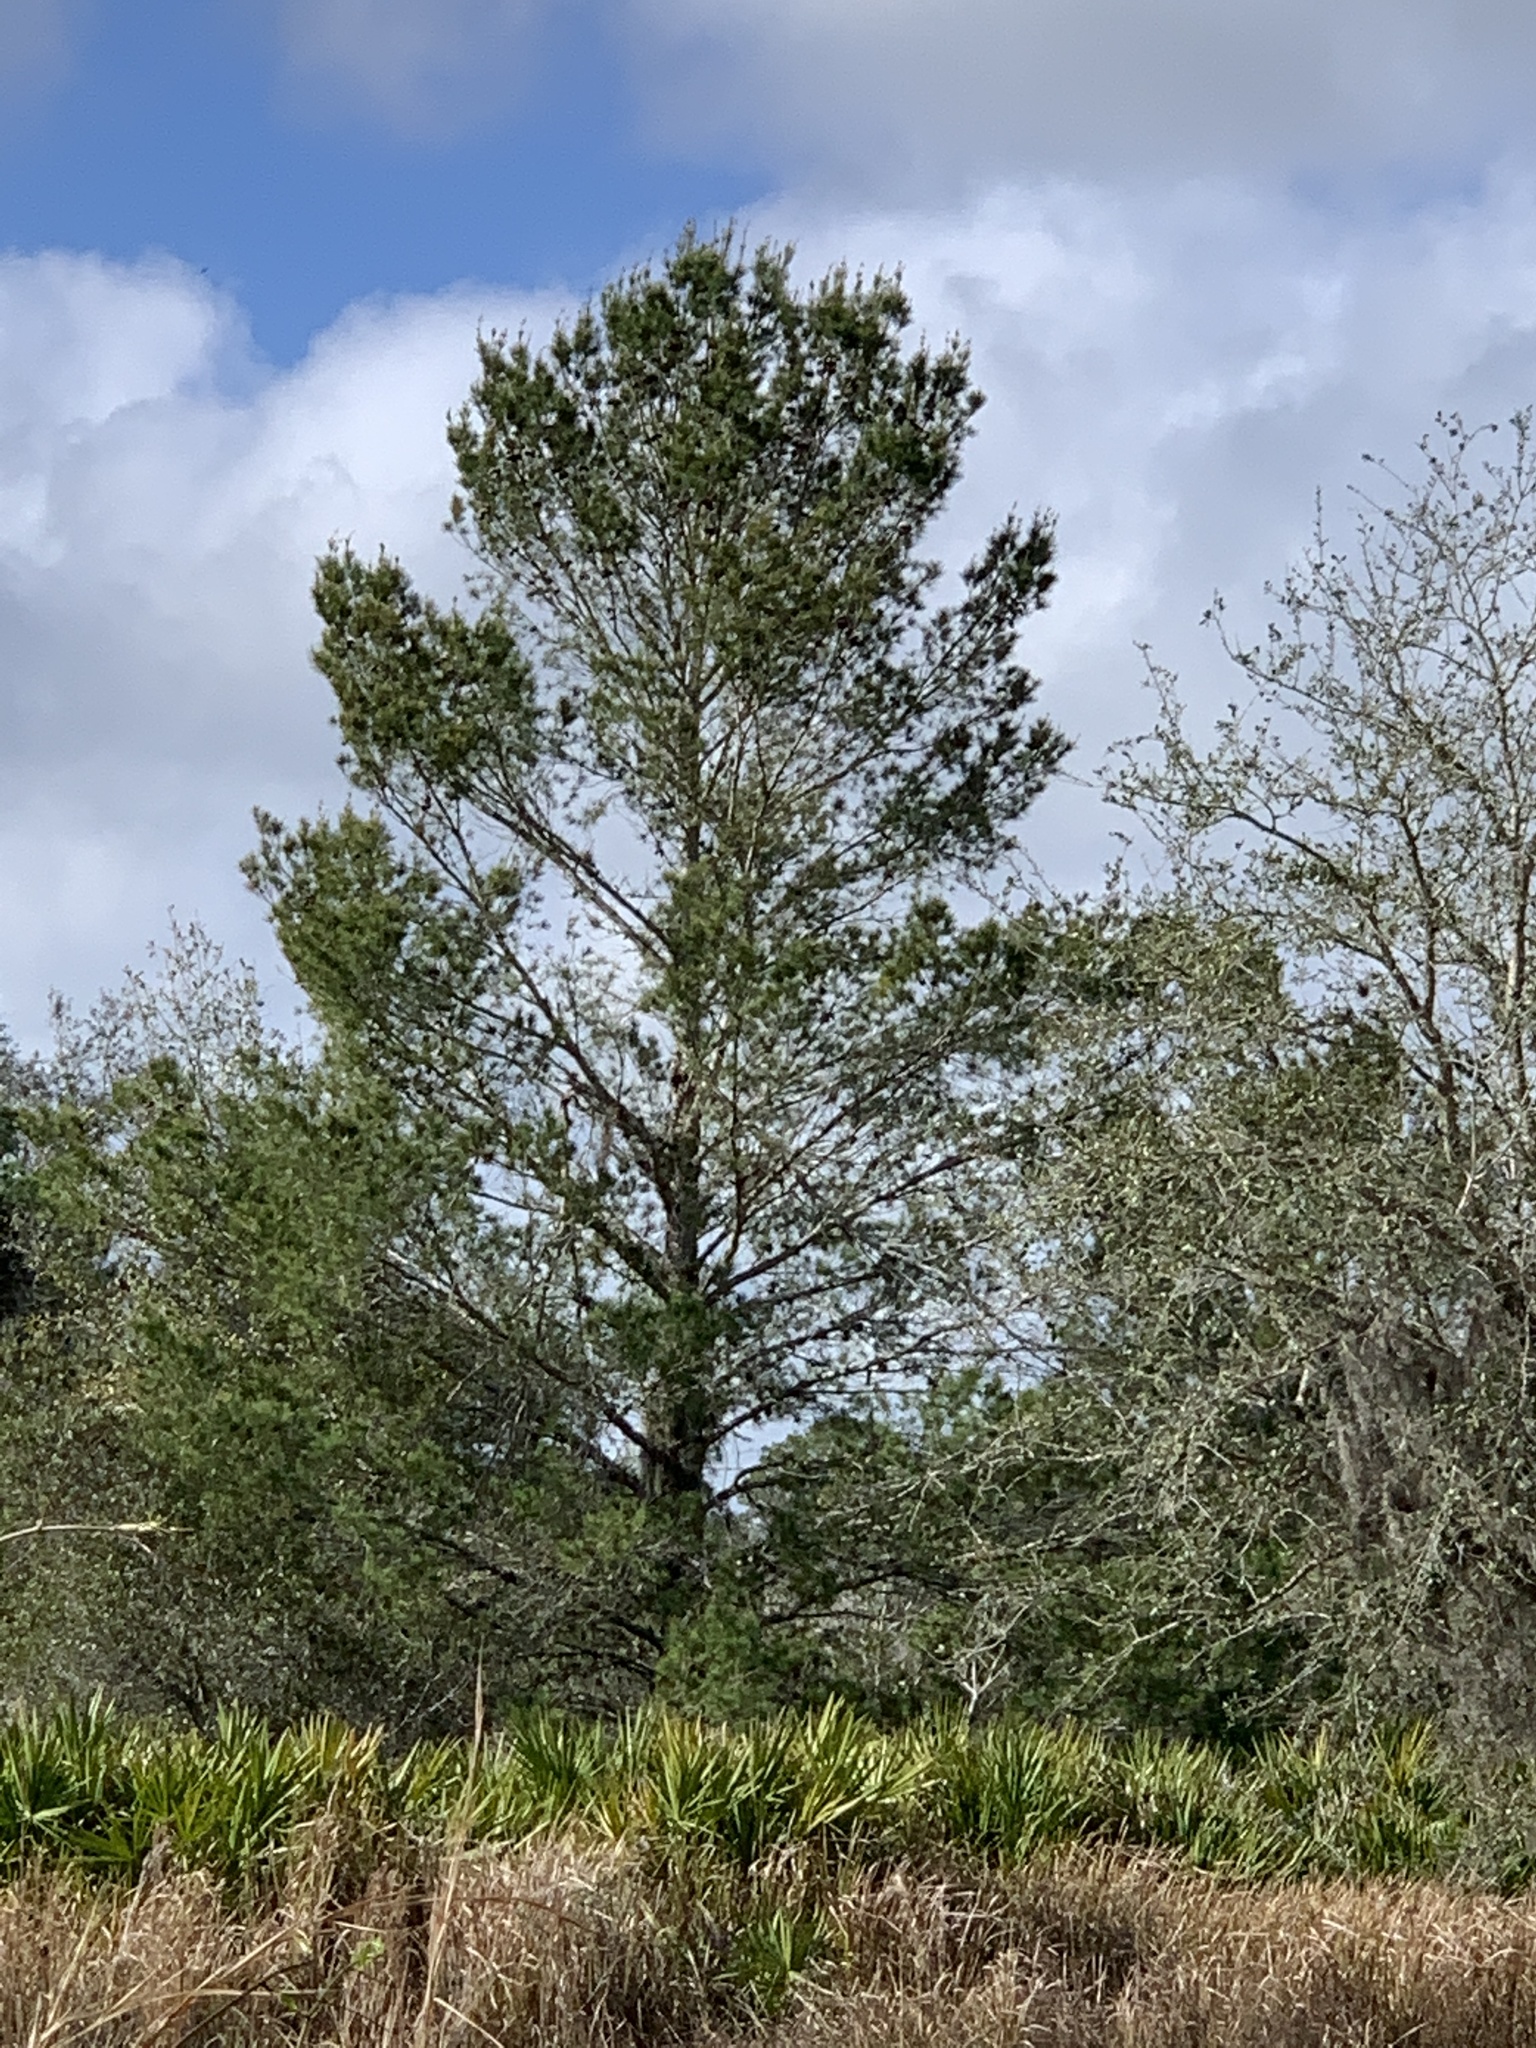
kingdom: Plantae
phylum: Tracheophyta
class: Pinopsida
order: Pinales
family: Pinaceae
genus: Pinus
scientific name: Pinus clausa
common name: Sand pine
